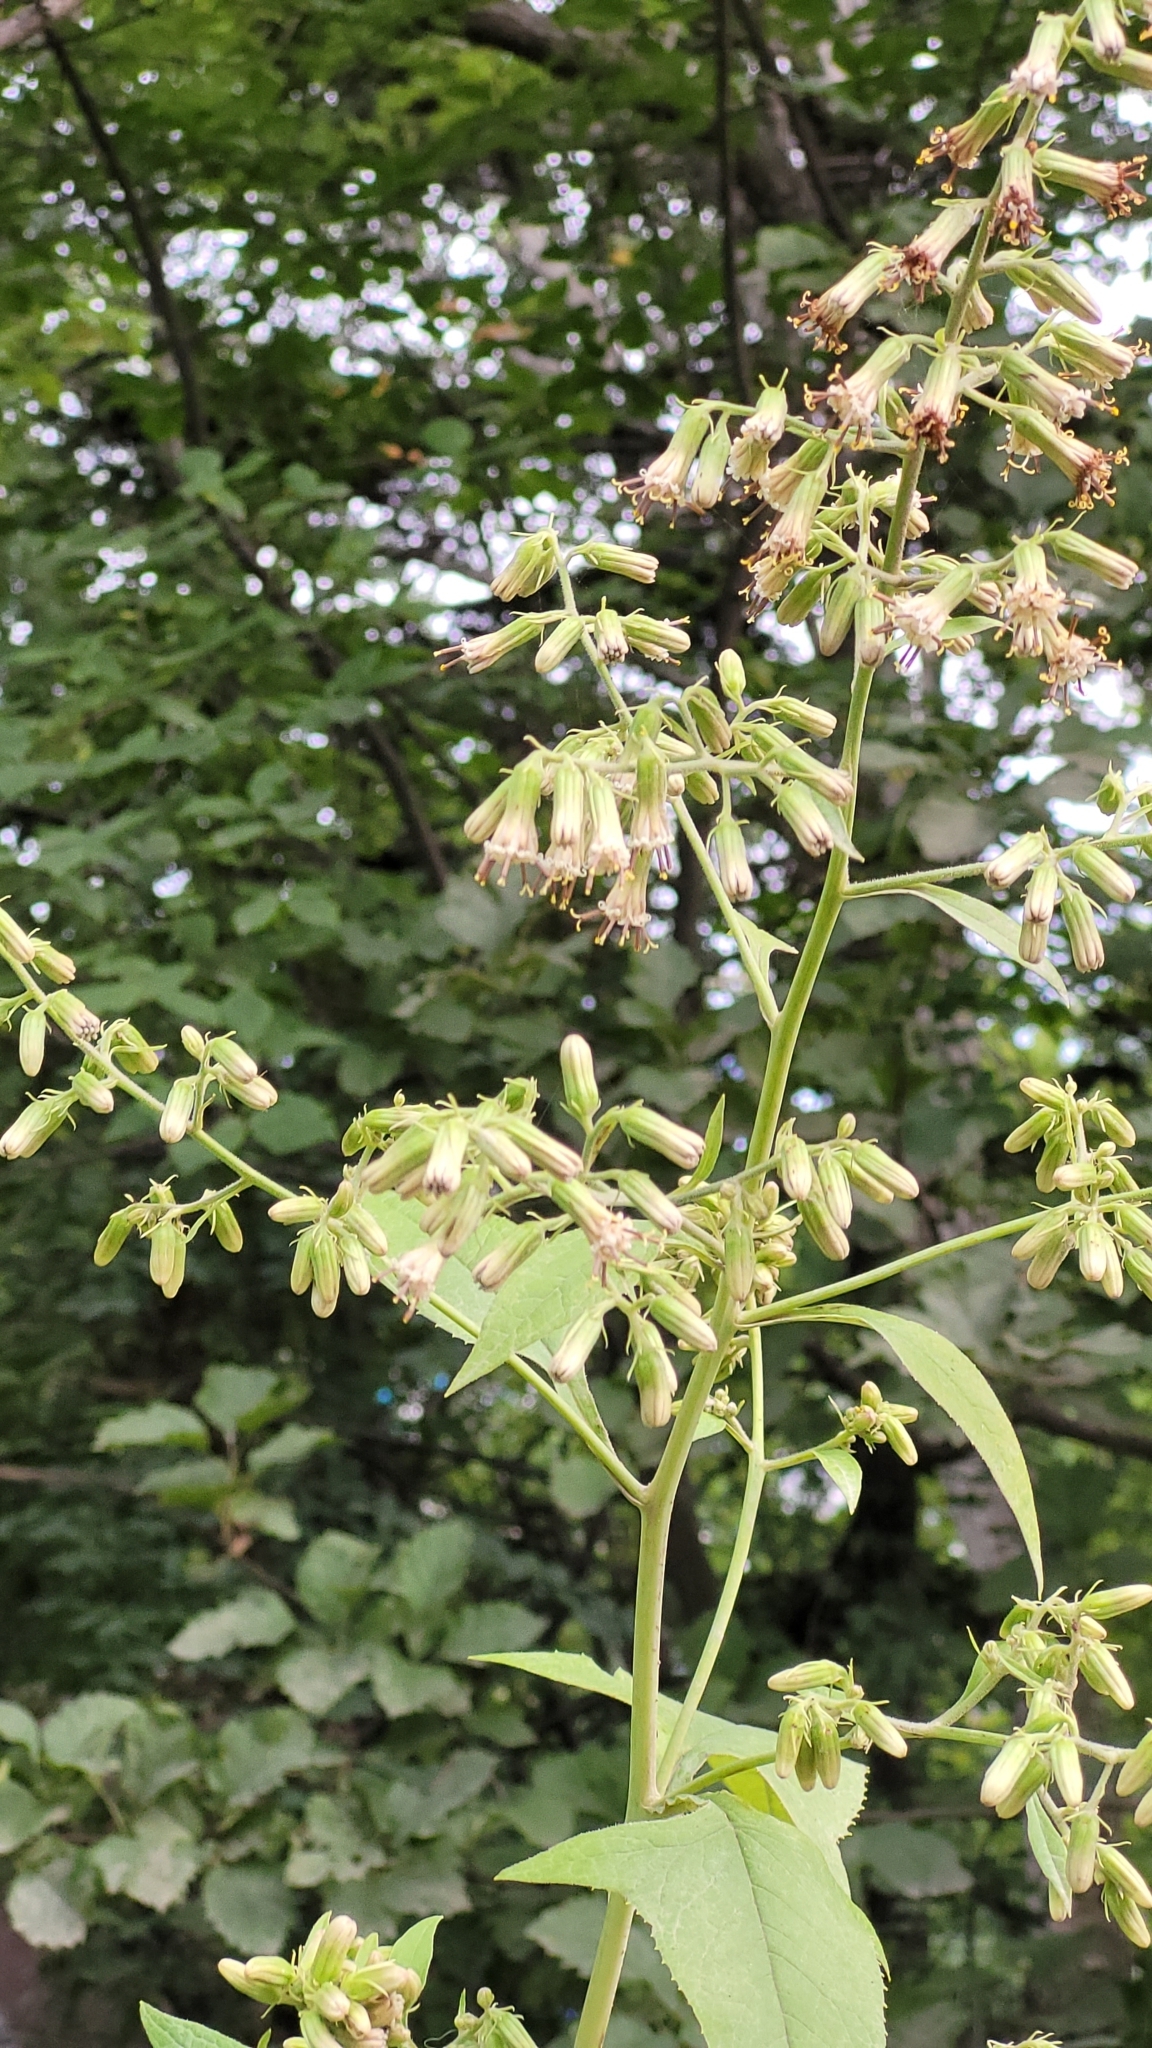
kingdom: Plantae
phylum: Tracheophyta
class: Magnoliopsida
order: Asterales
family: Asteraceae
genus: Parasenecio
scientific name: Parasenecio hastatus
